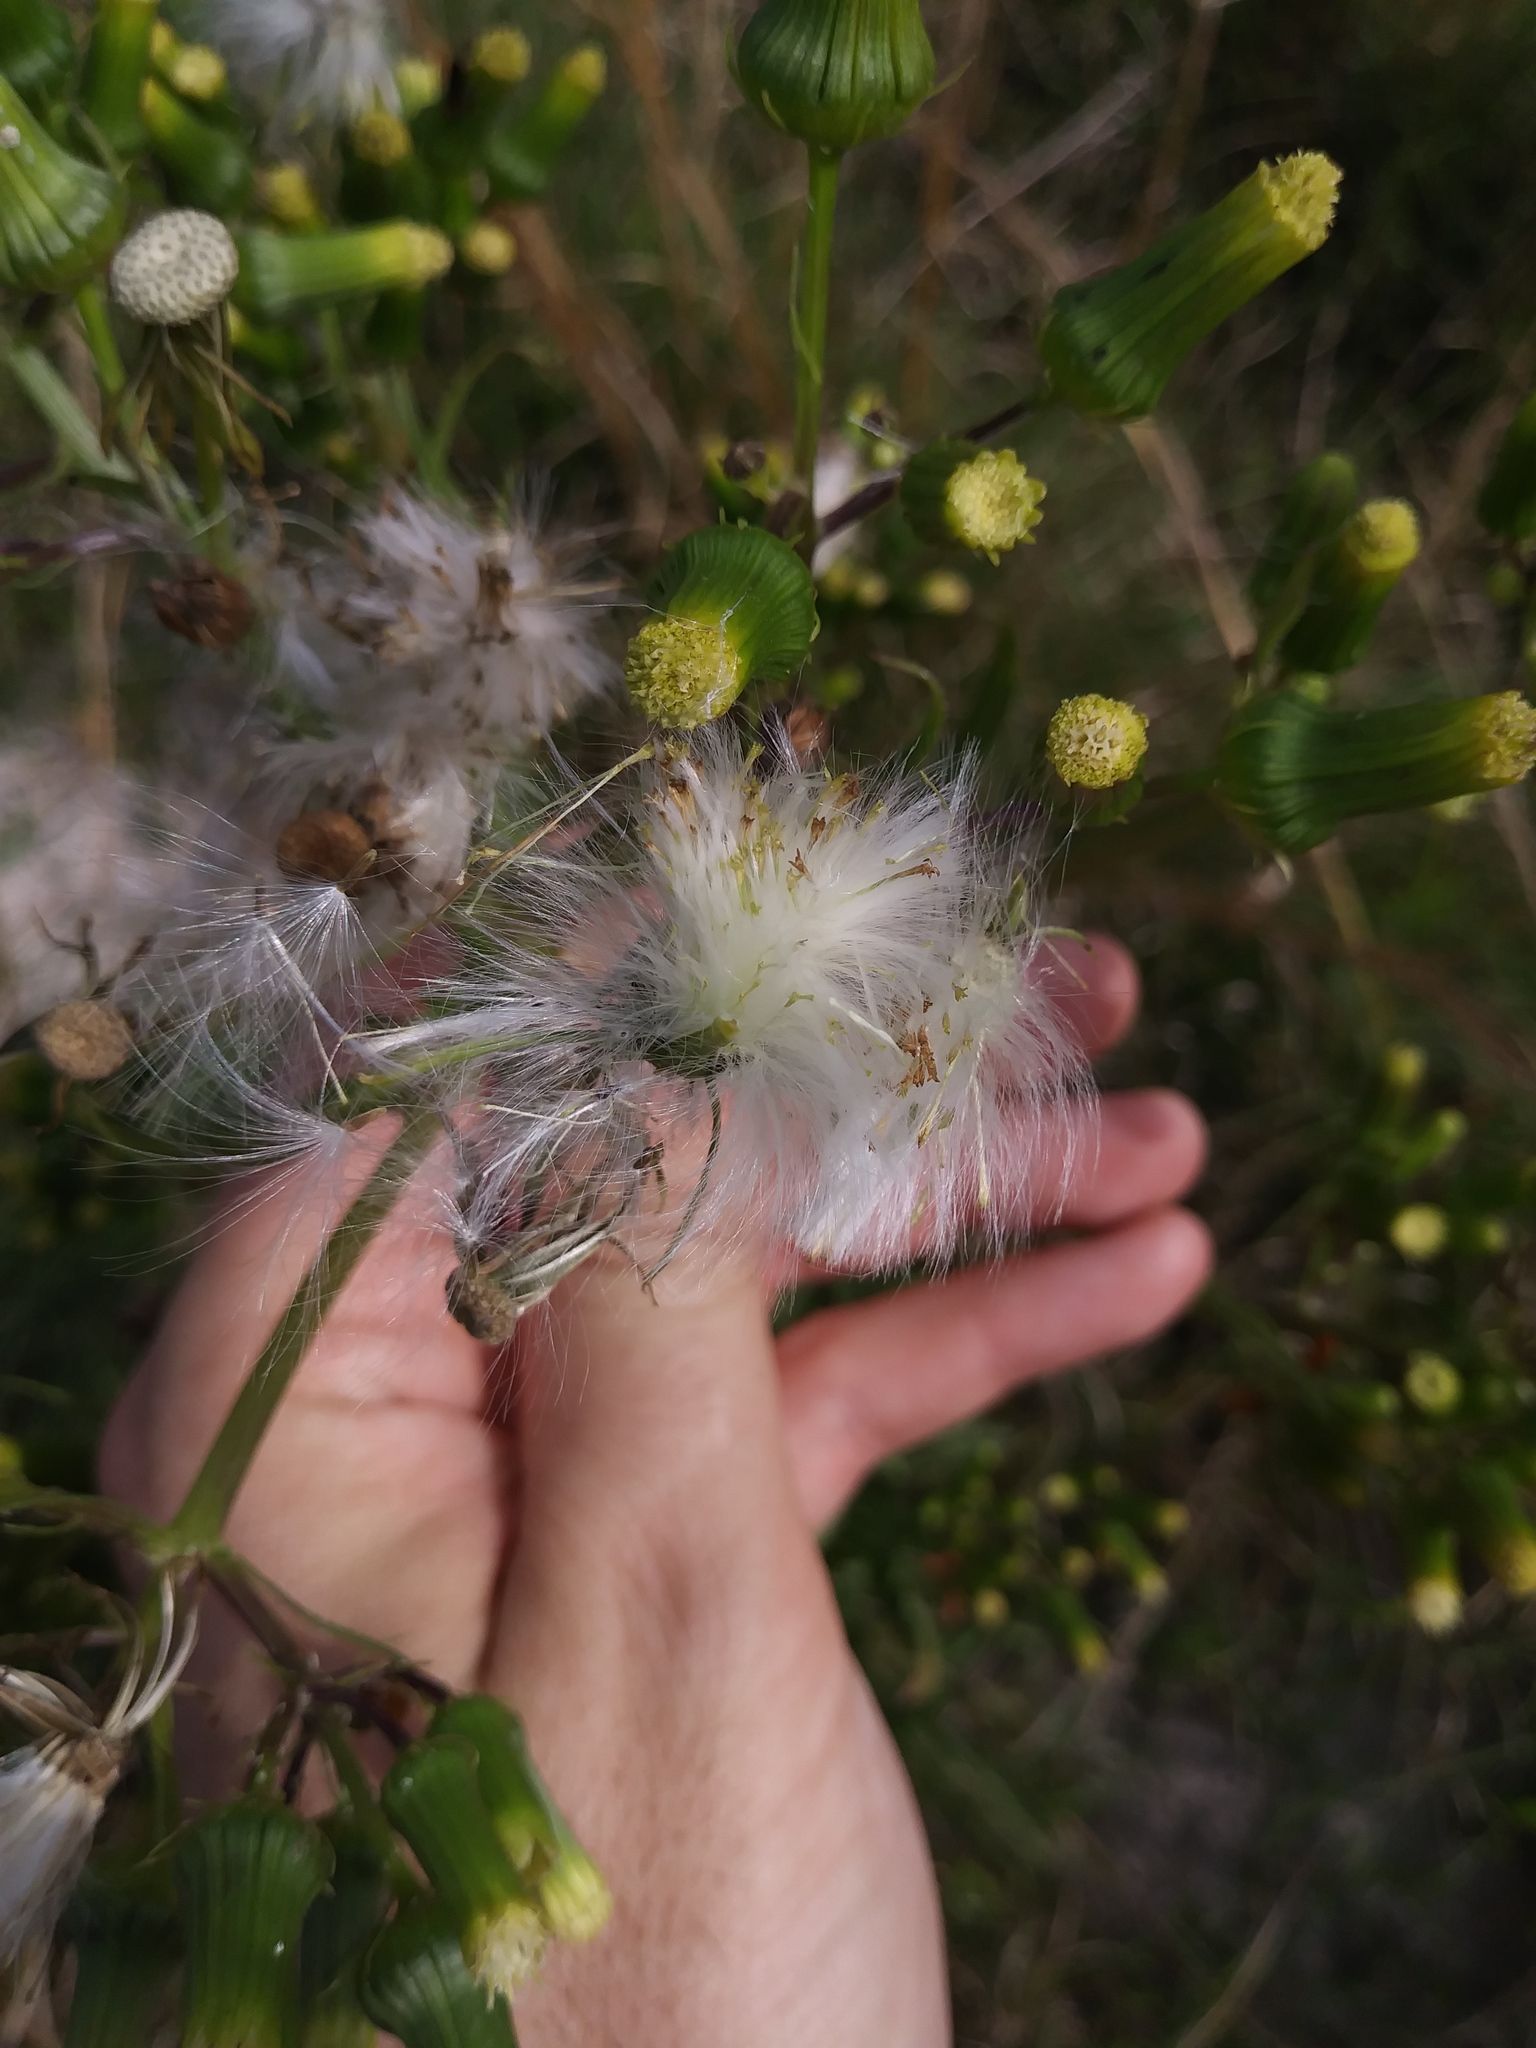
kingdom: Plantae
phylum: Tracheophyta
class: Magnoliopsida
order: Asterales
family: Asteraceae
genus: Erechtites
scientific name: Erechtites hieraciifolius
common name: American burnweed
